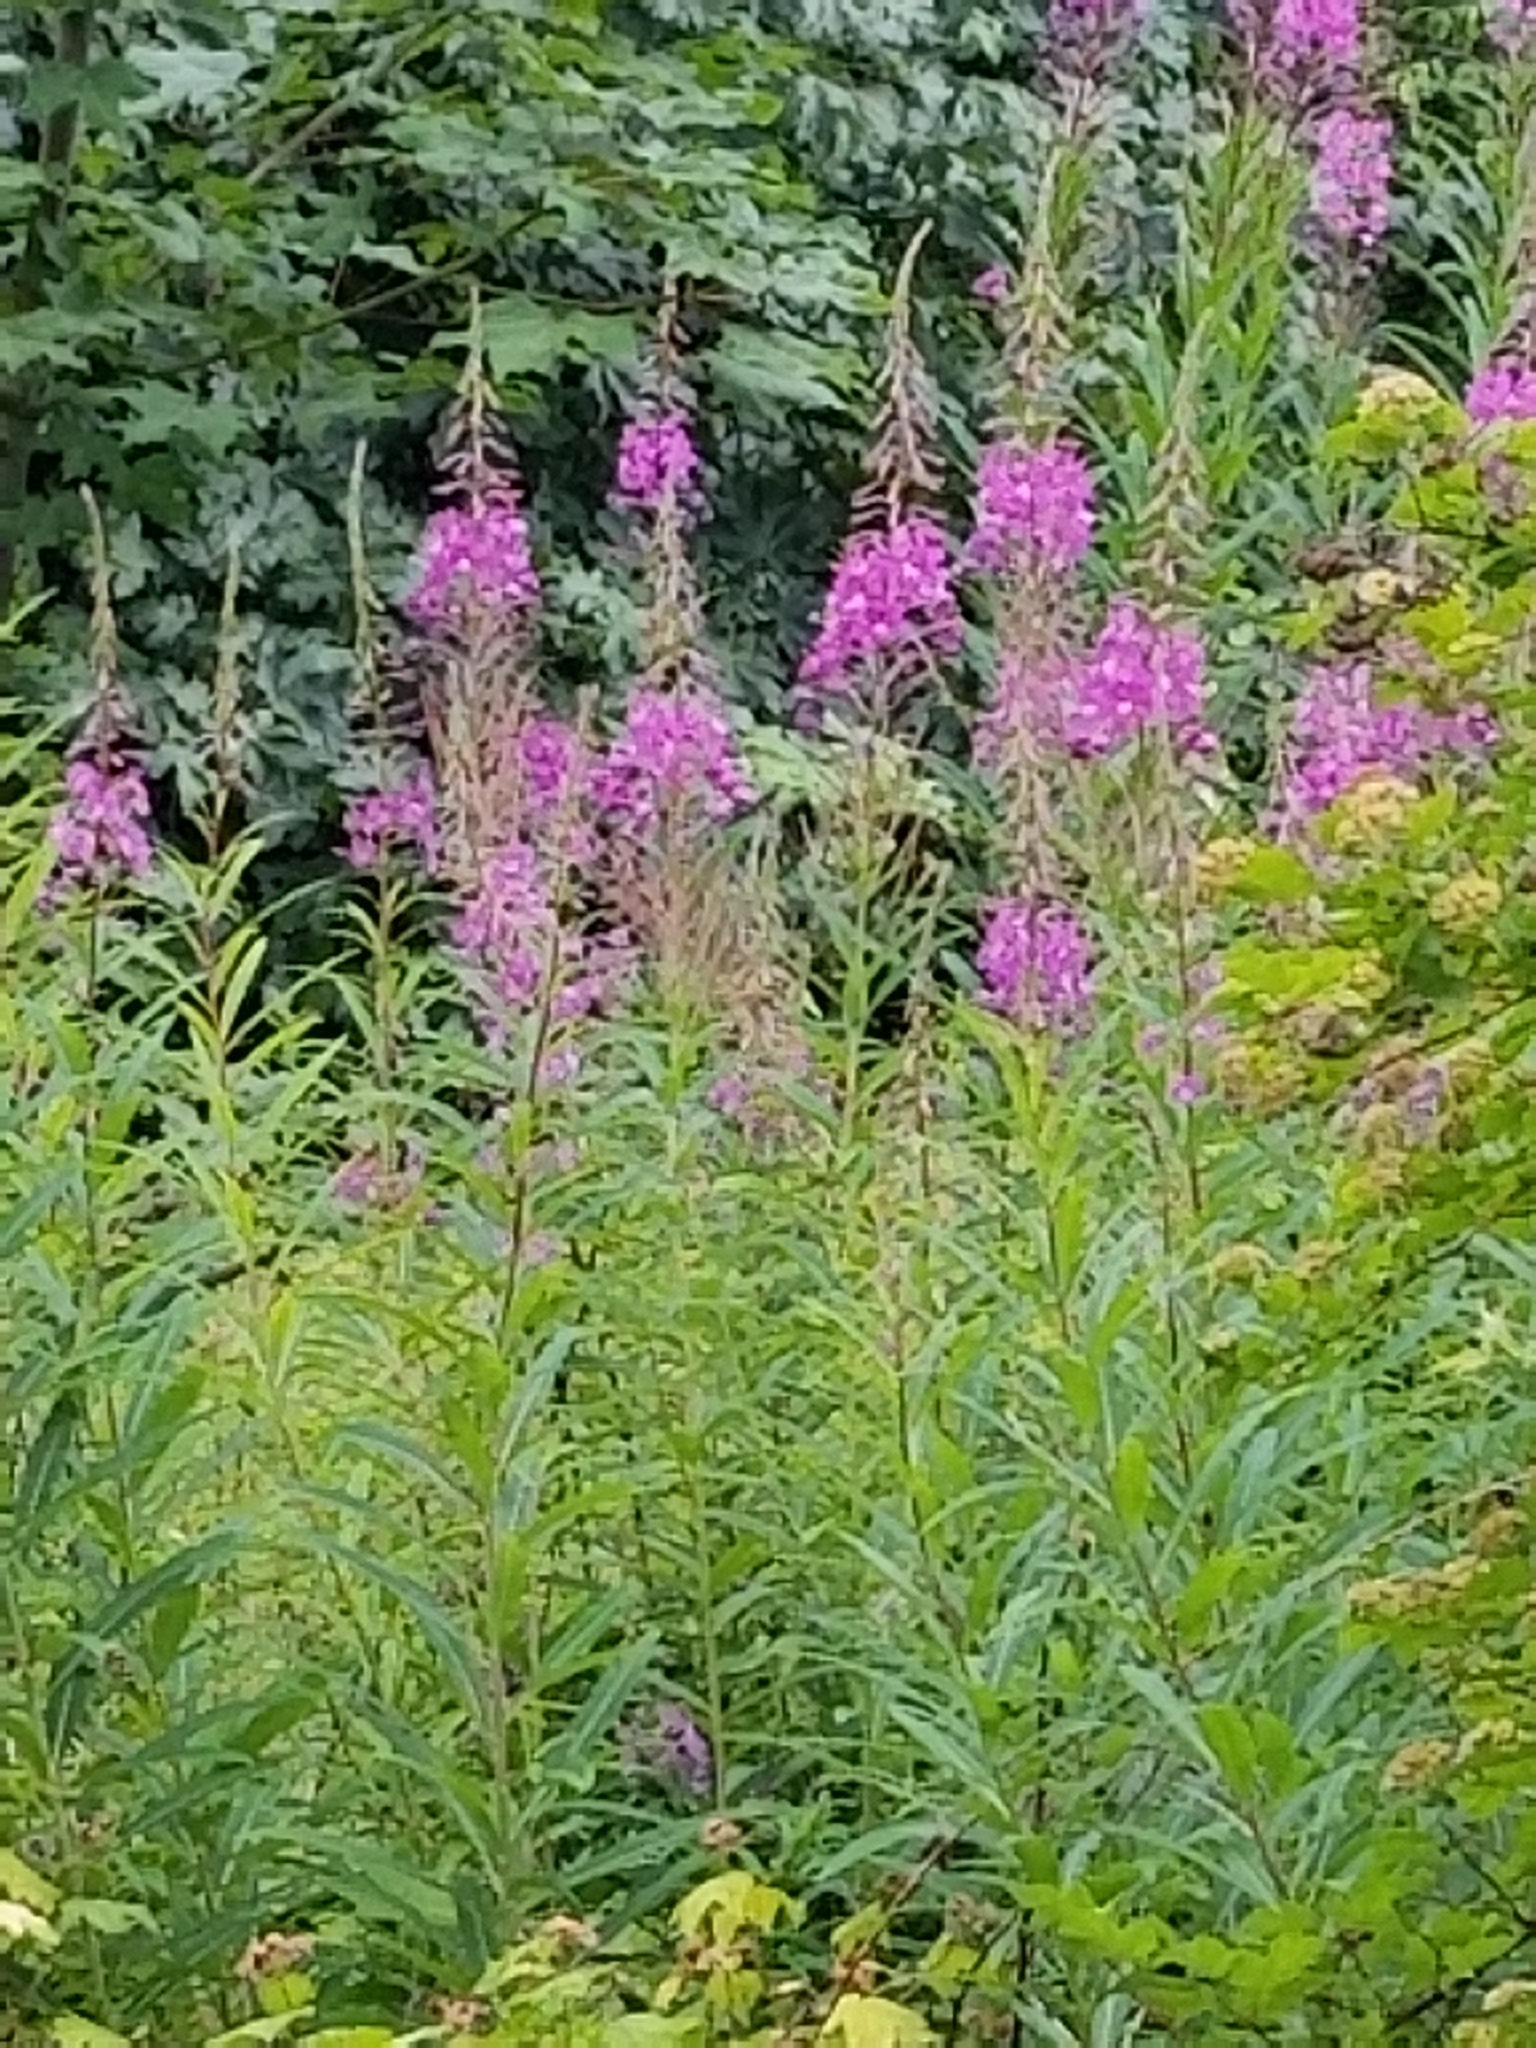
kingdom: Plantae
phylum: Tracheophyta
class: Magnoliopsida
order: Myrtales
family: Onagraceae
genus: Chamaenerion
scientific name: Chamaenerion angustifolium
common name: Fireweed
